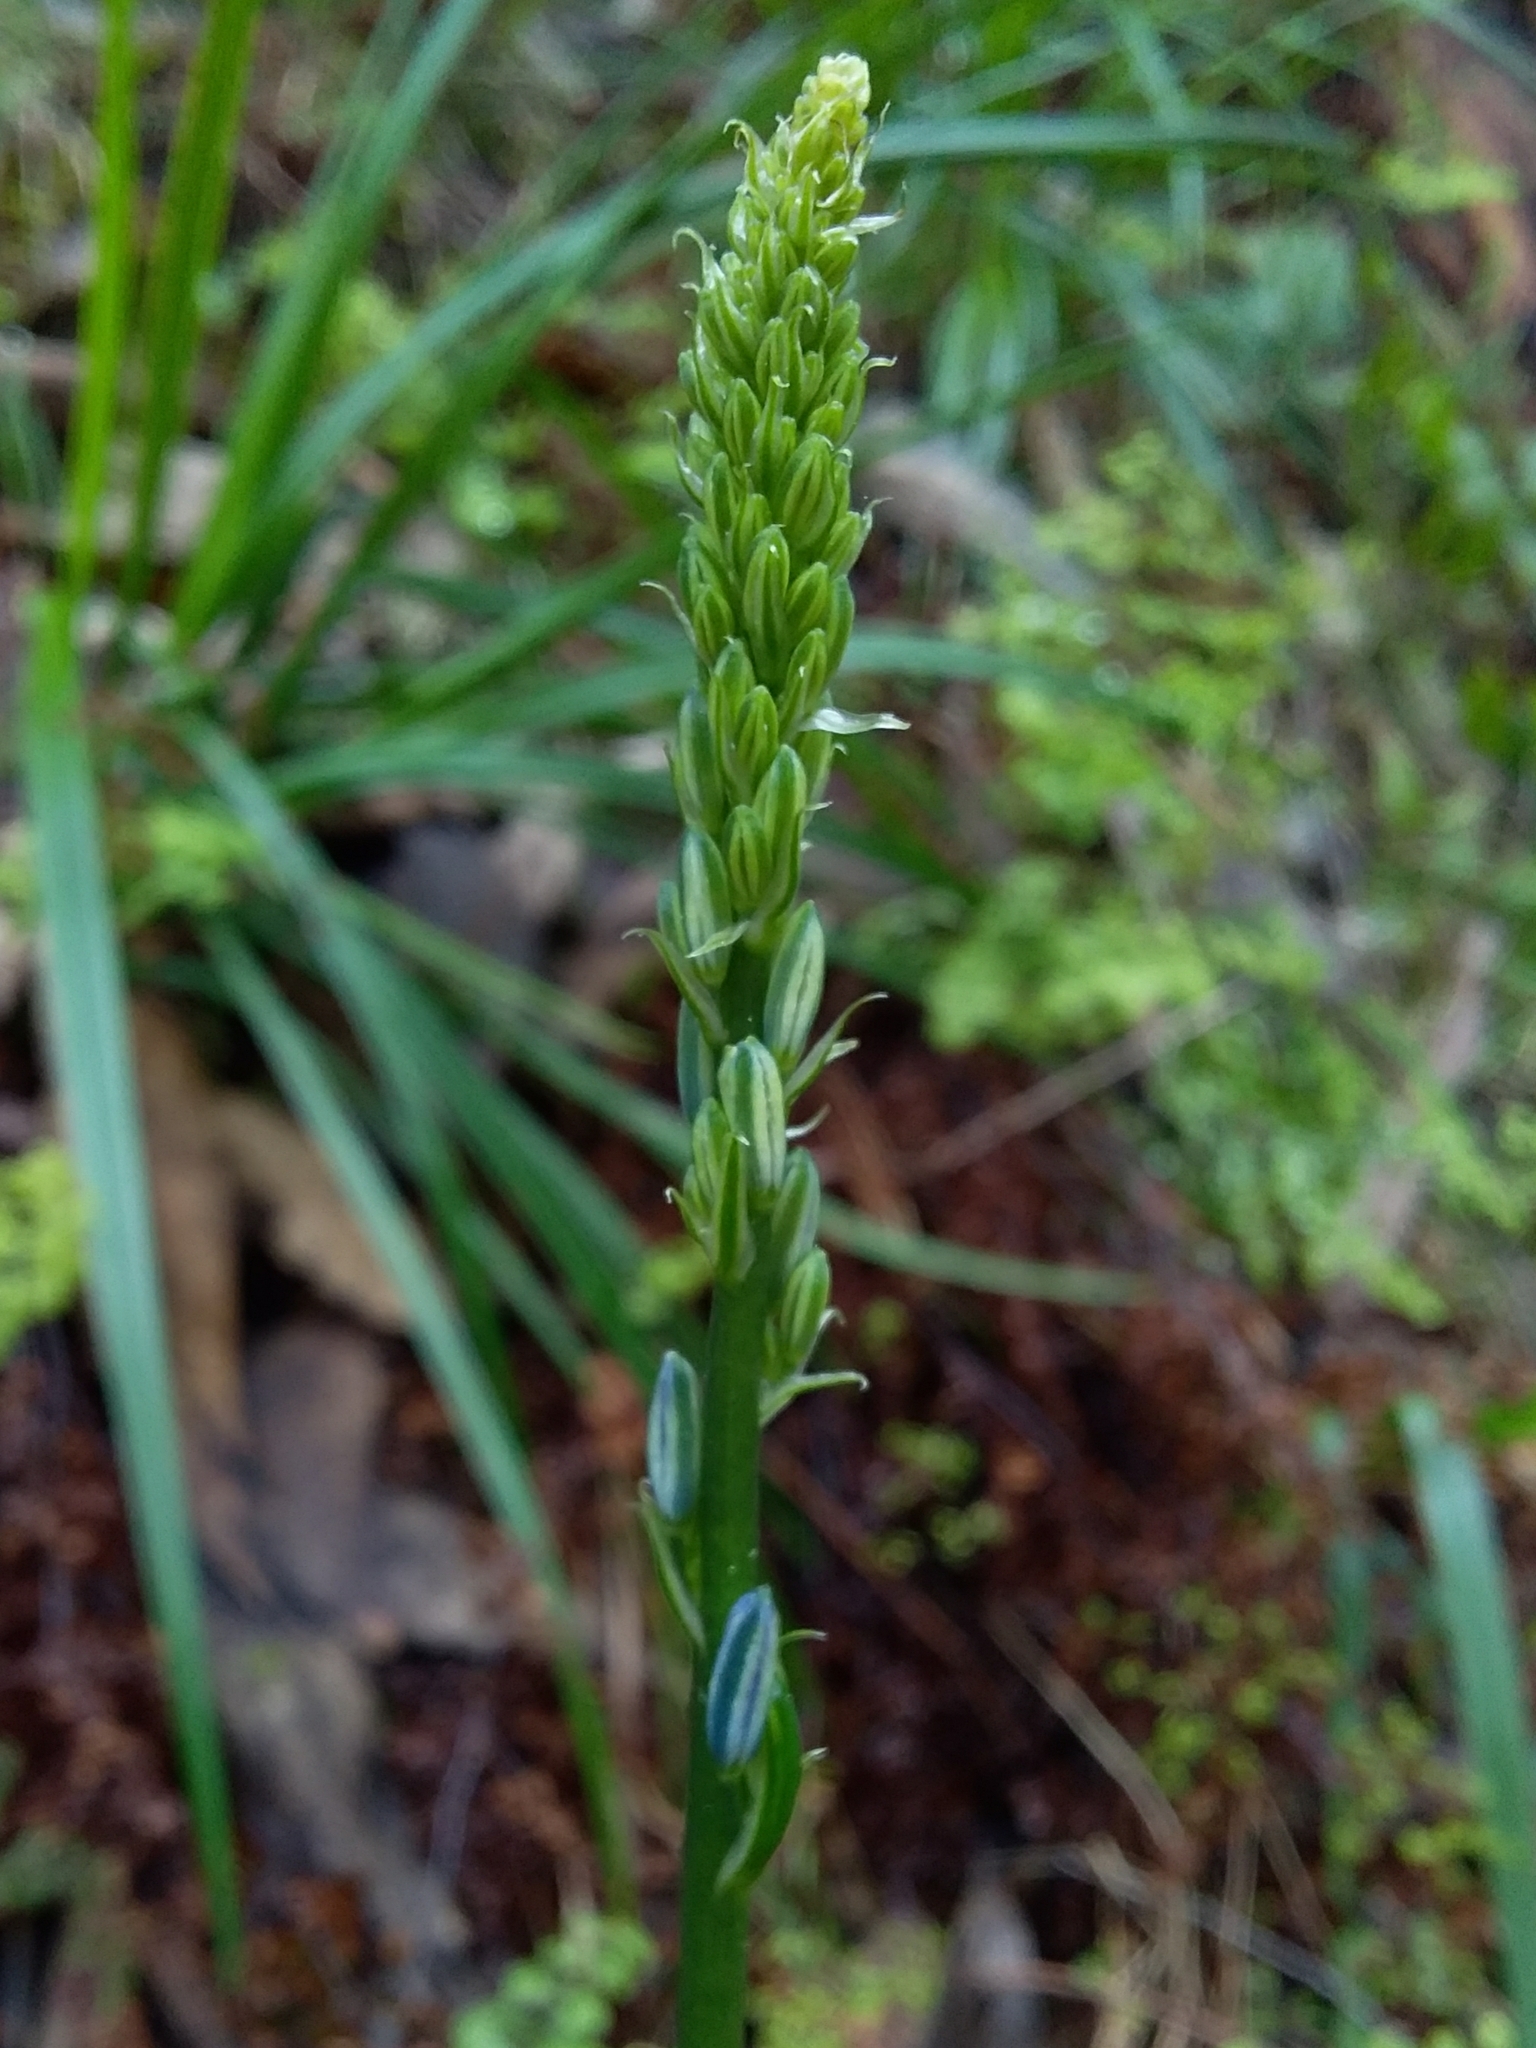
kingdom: Plantae
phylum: Tracheophyta
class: Liliopsida
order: Asparagales
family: Asphodelaceae
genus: Caesia
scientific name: Caesia calliantha
